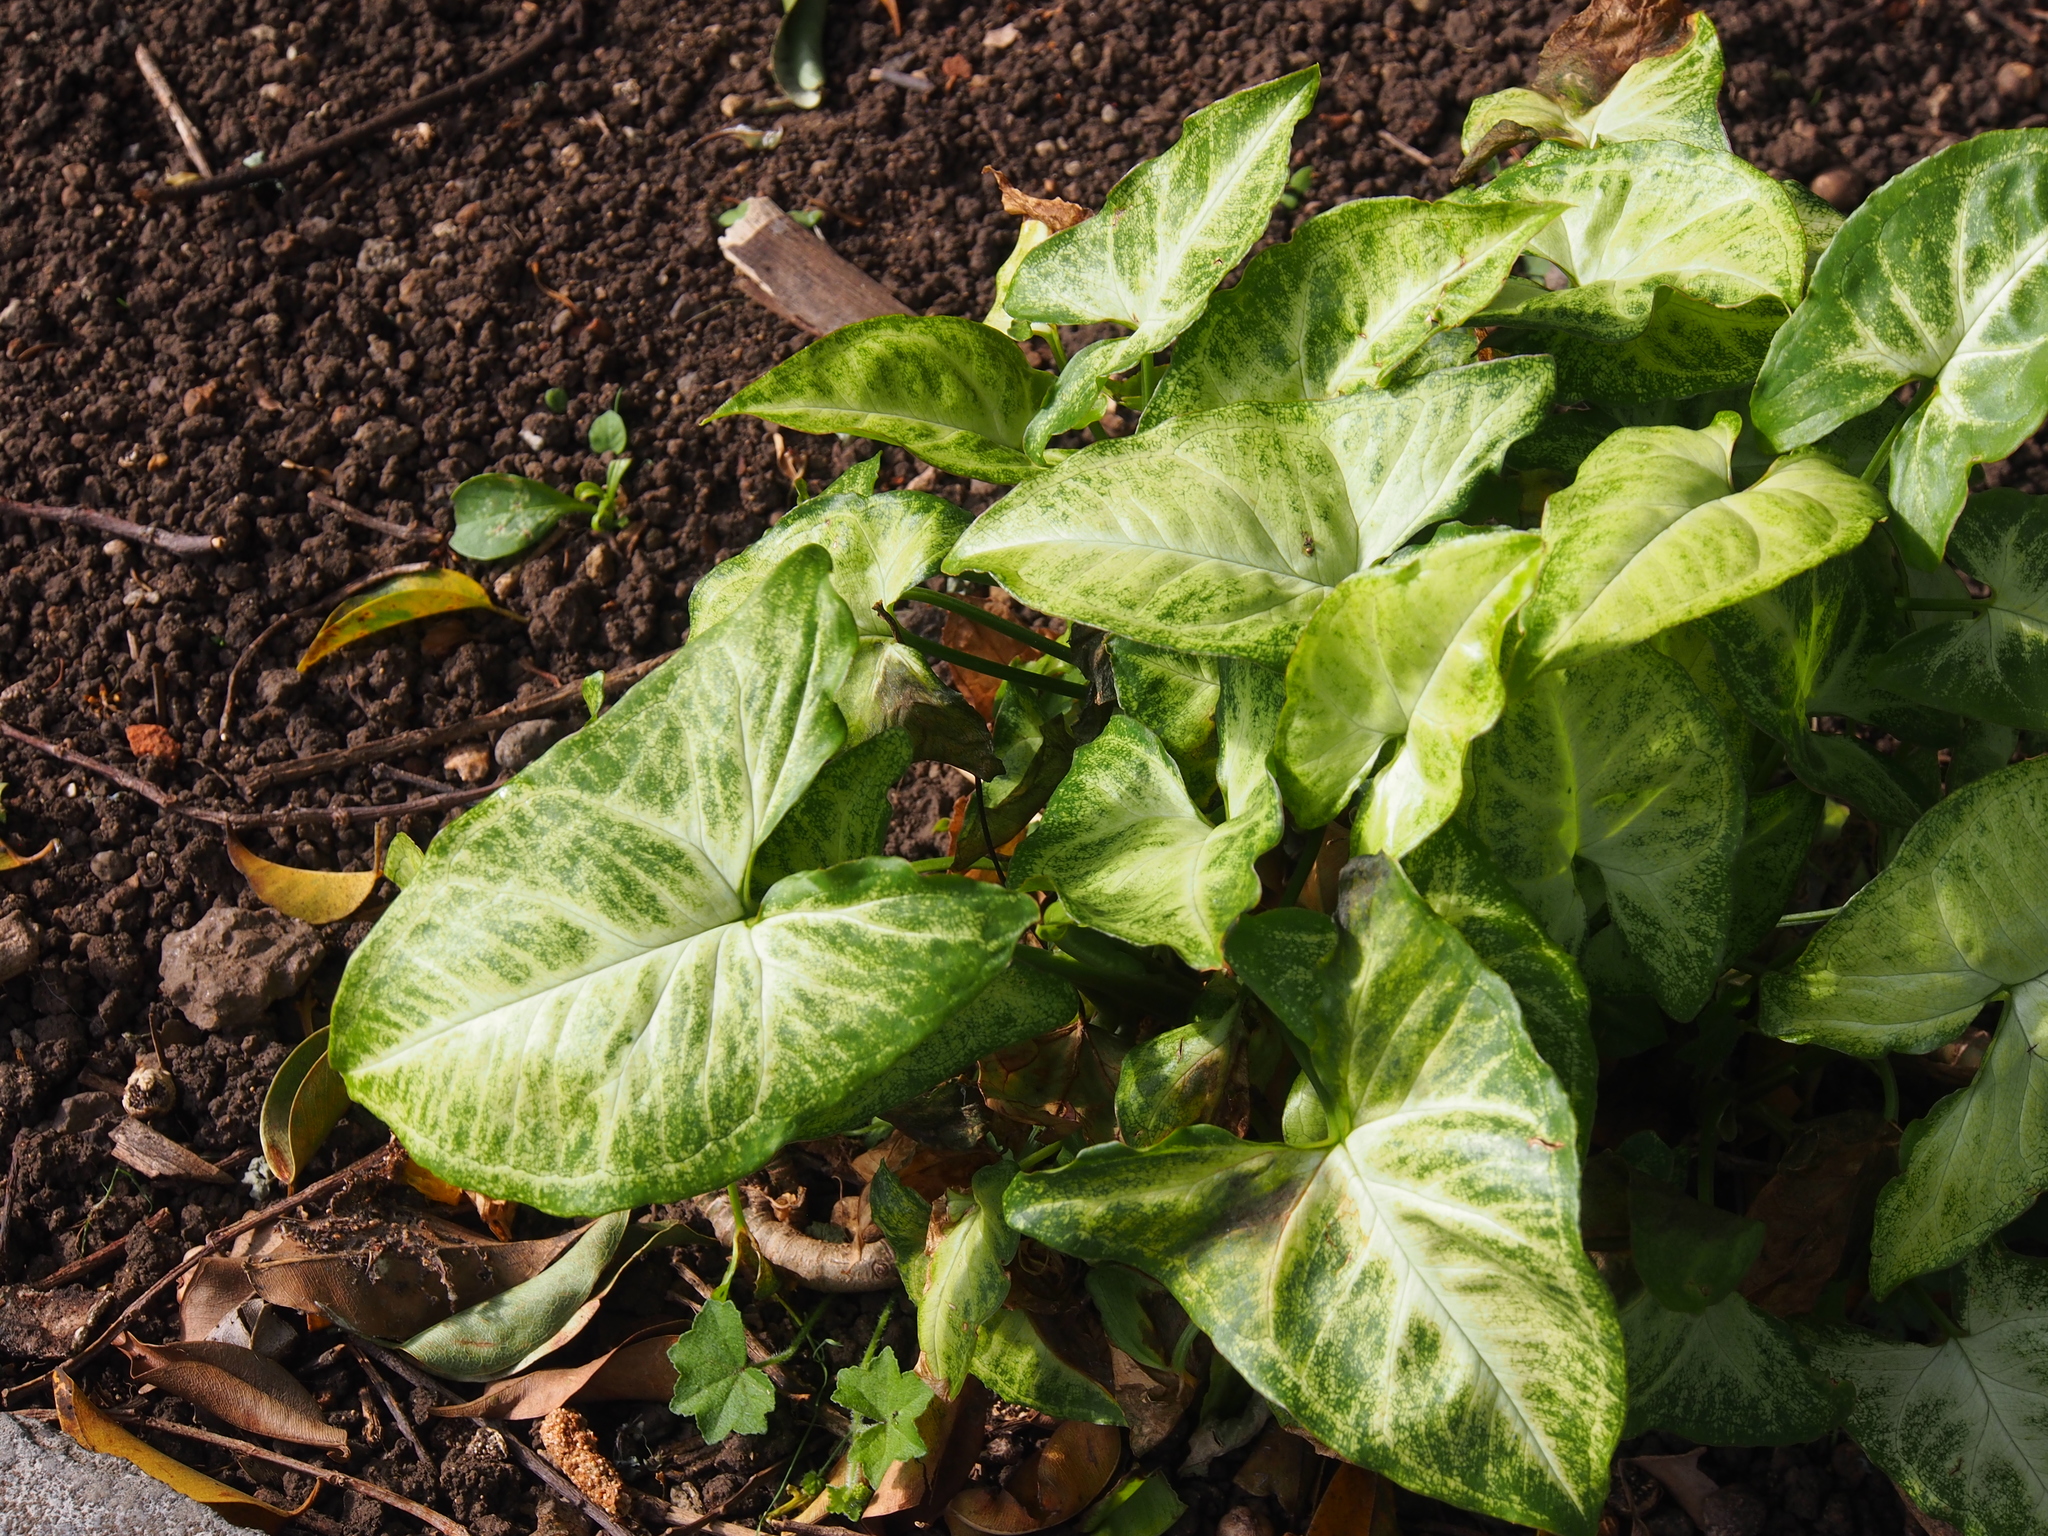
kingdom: Plantae
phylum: Tracheophyta
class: Liliopsida
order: Alismatales
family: Araceae
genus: Syngonium
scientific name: Syngonium podophyllum
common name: American evergreen
